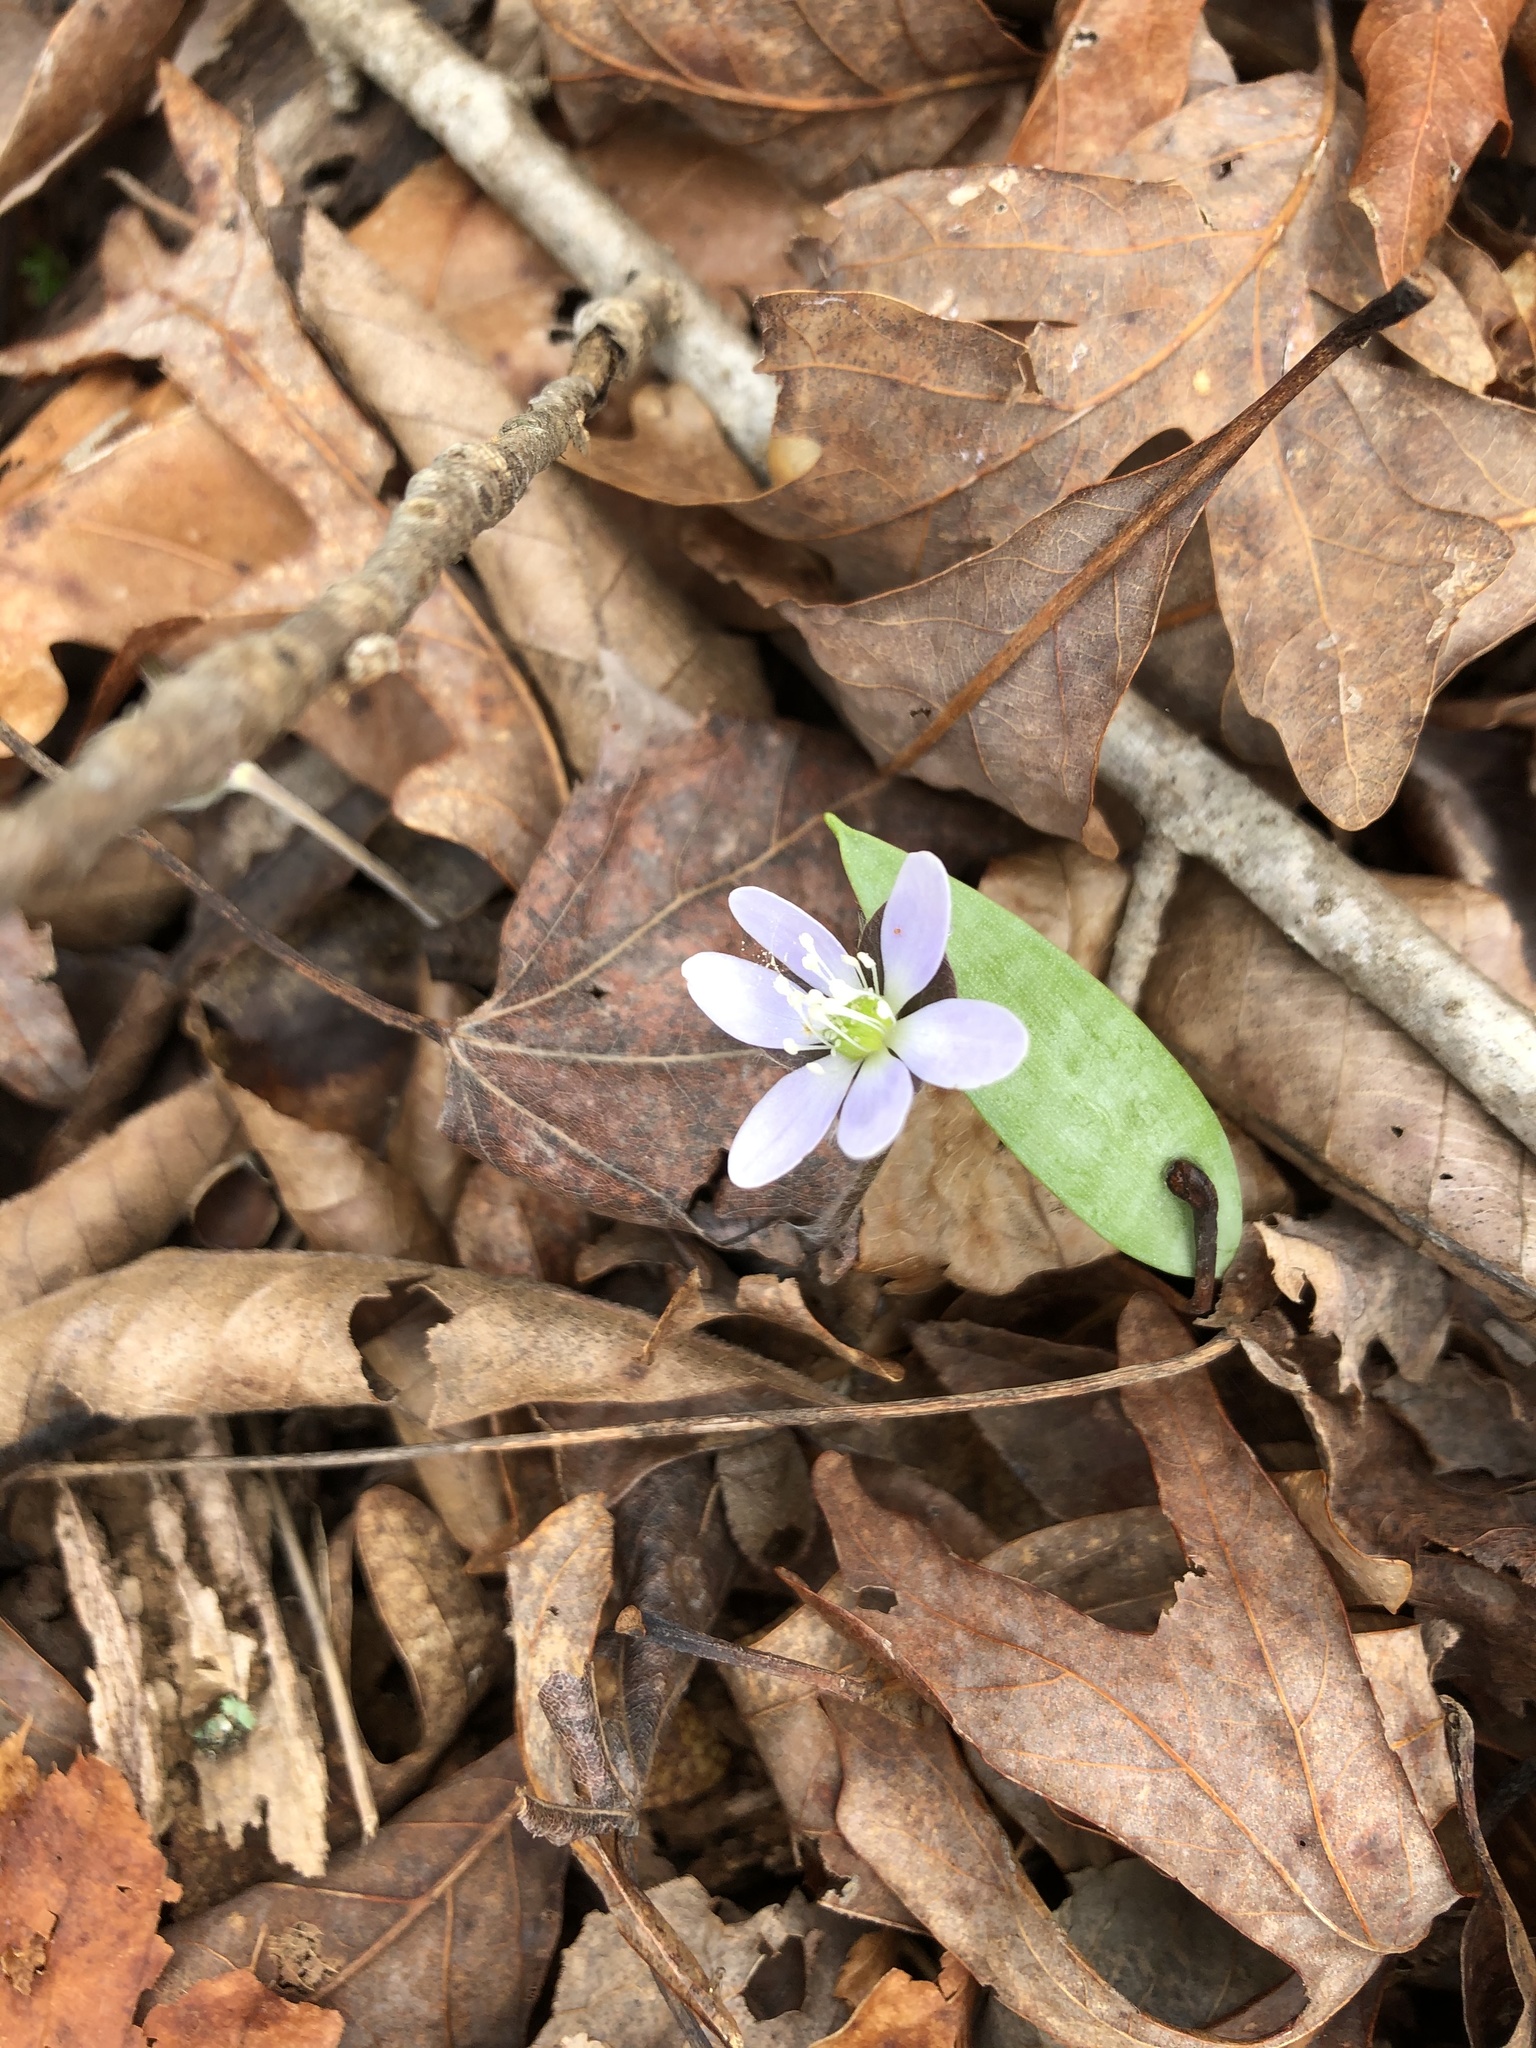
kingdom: Plantae
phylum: Tracheophyta
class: Magnoliopsida
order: Ranunculales
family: Ranunculaceae
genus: Hepatica
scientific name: Hepatica americana
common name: American hepatica
